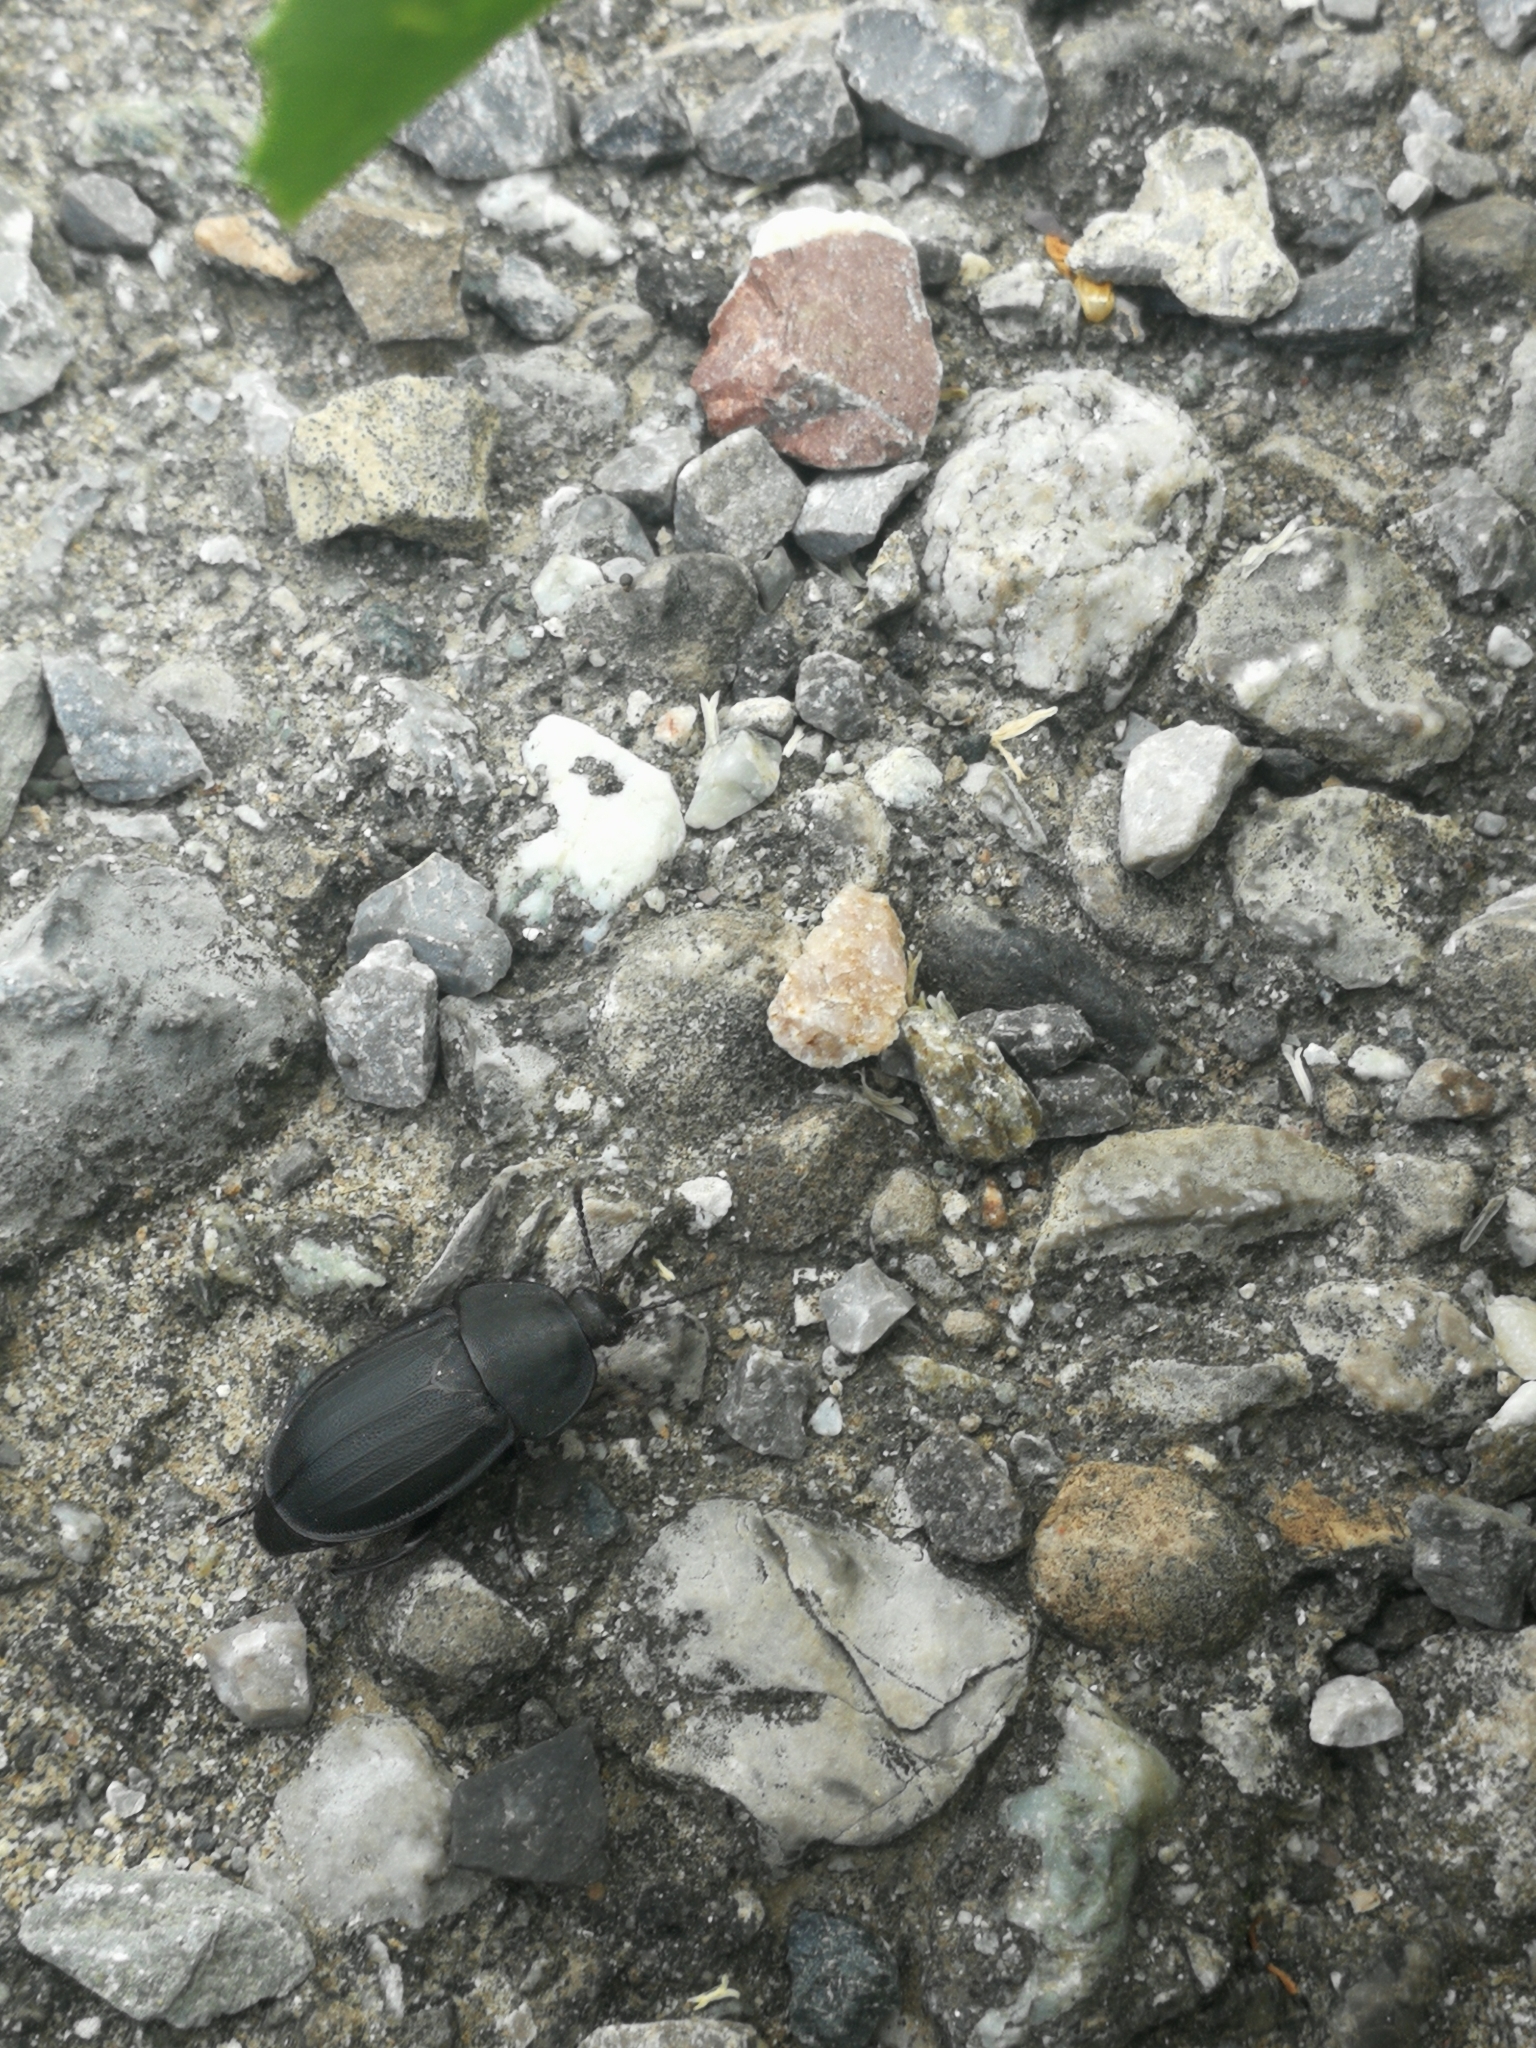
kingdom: Animalia
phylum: Arthropoda
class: Insecta
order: Coleoptera
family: Staphylinidae
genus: Silpha
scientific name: Silpha obscura
